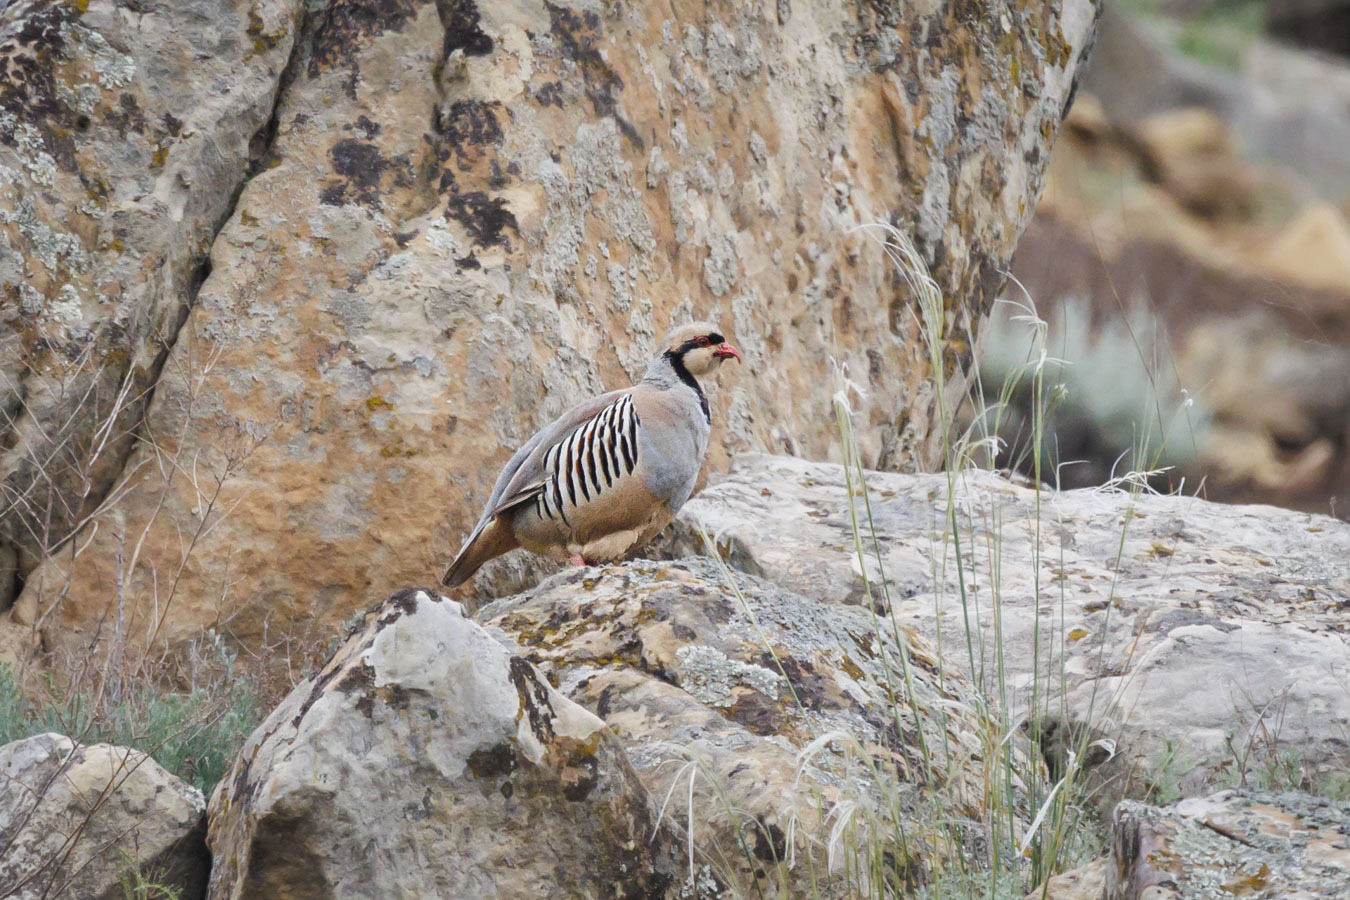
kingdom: Animalia
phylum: Chordata
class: Aves
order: Galliformes
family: Phasianidae
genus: Alectoris
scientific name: Alectoris chukar
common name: Chukar
